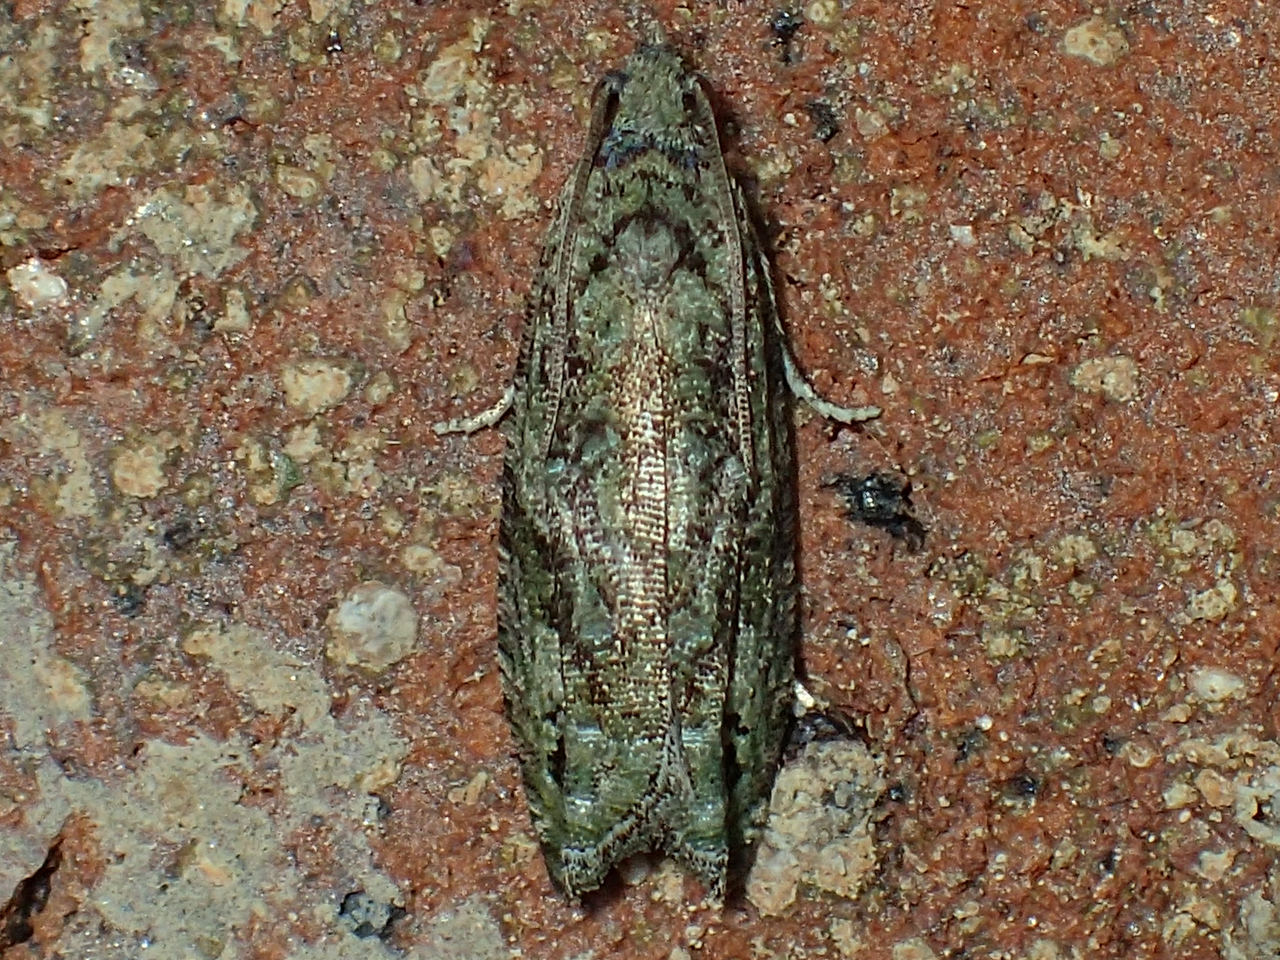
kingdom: Animalia
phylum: Arthropoda
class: Insecta
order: Lepidoptera
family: Tortricidae
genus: Proteoteras
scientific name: Proteoteras aesculana
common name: Maple twig borer moth
